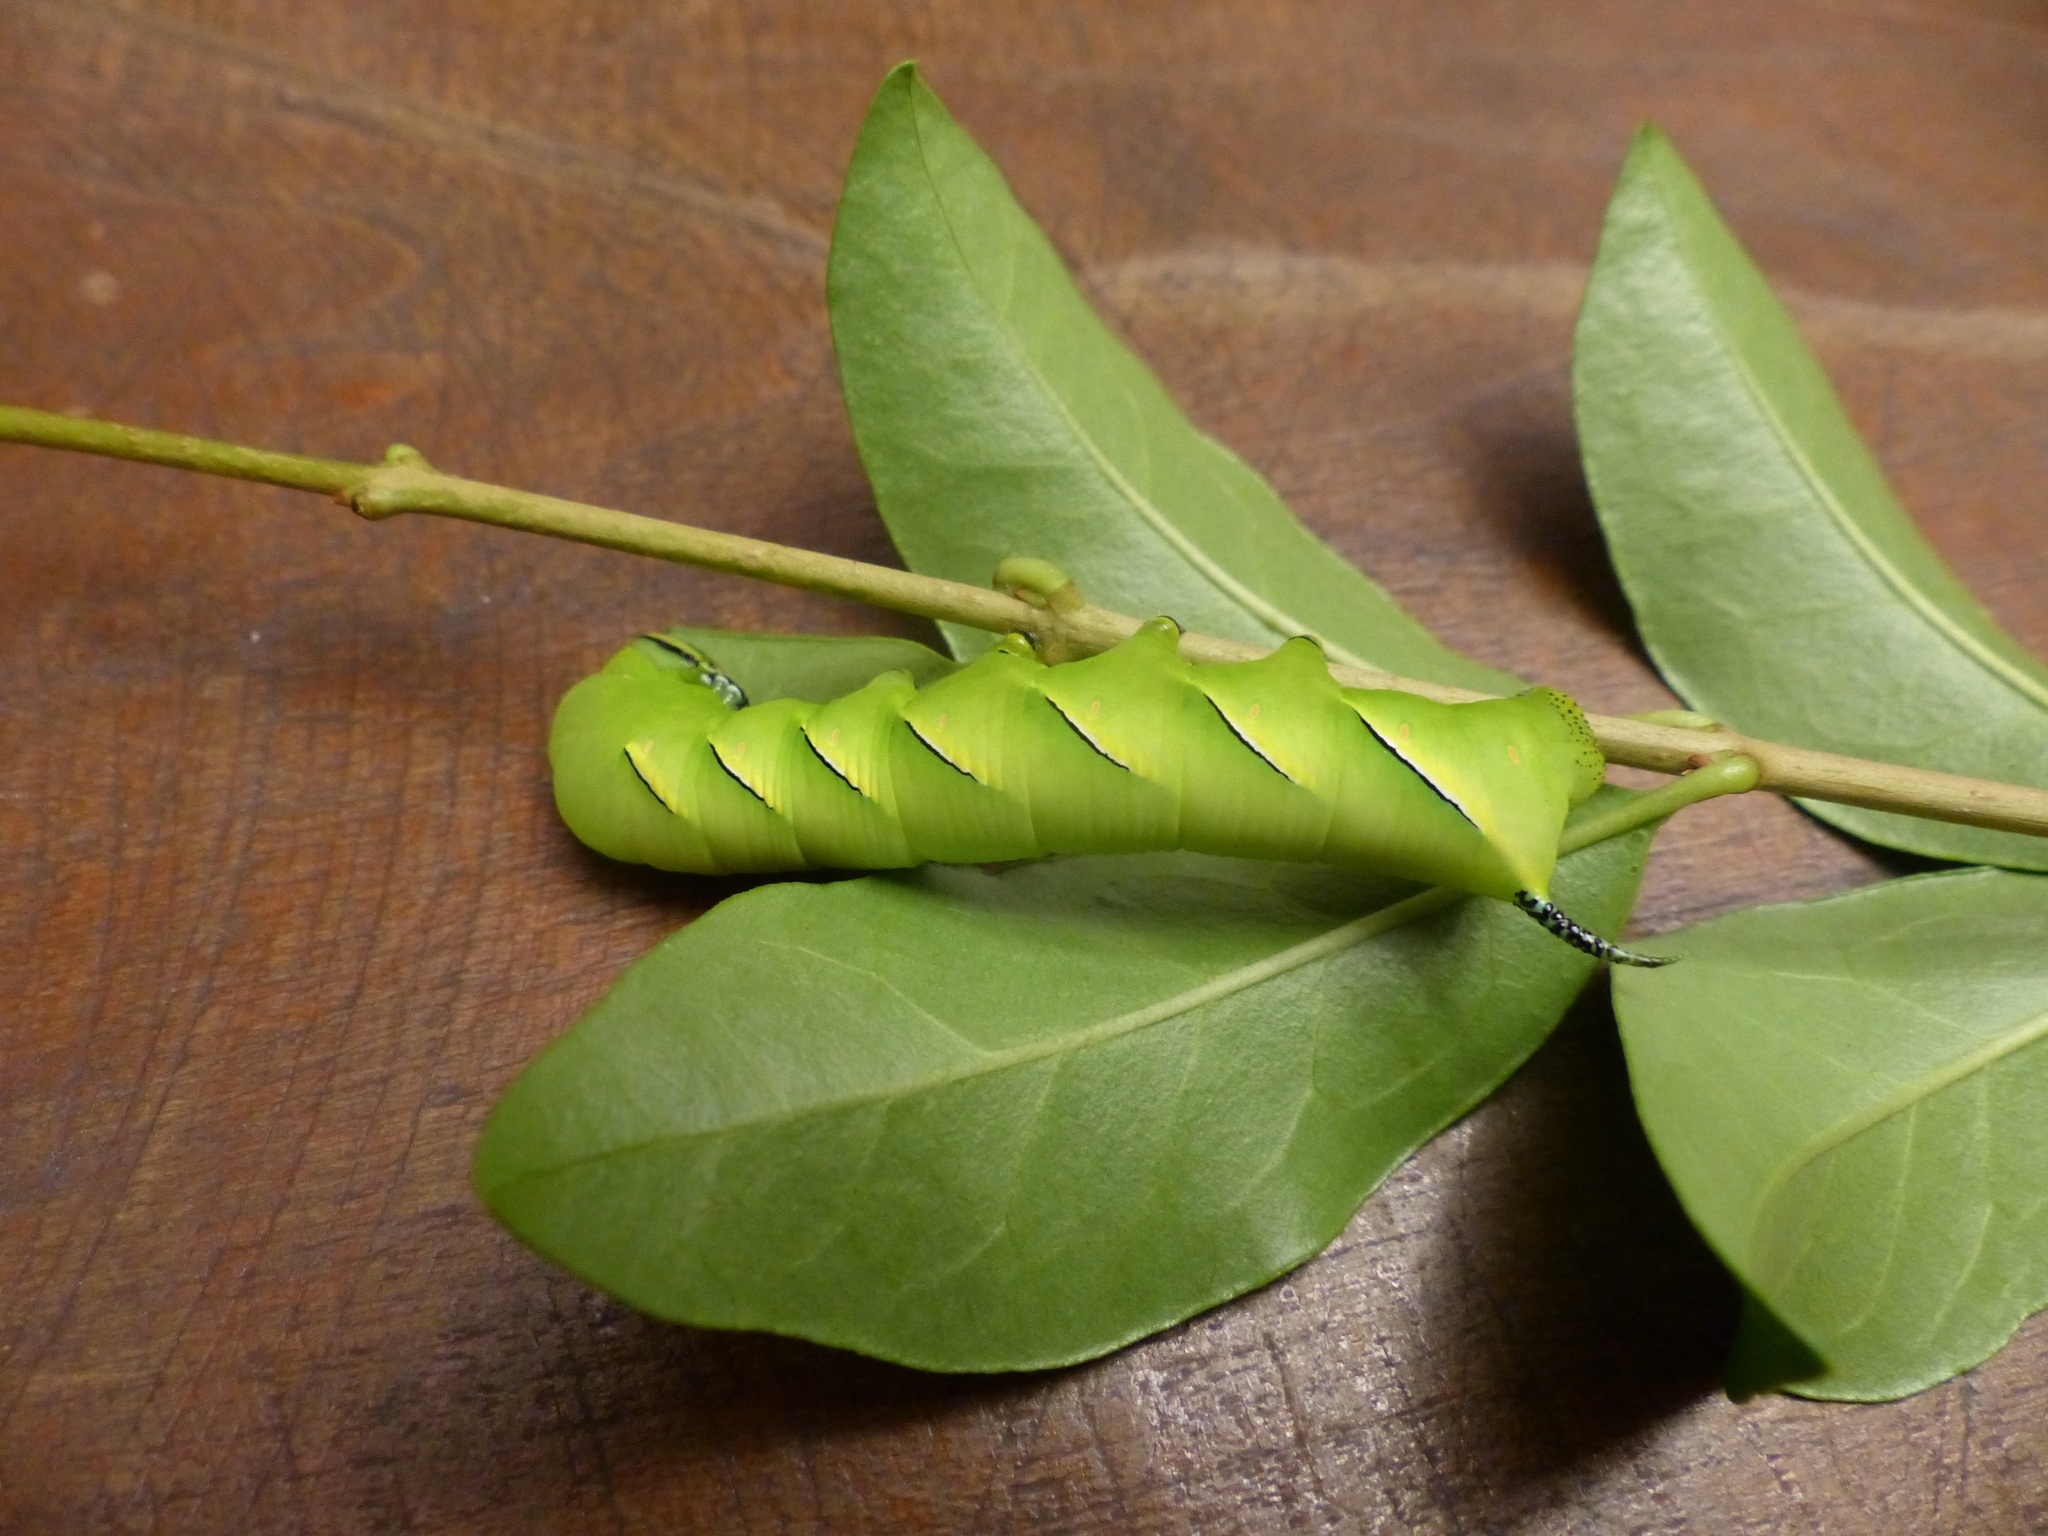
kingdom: Animalia
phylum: Arthropoda
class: Insecta
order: Lepidoptera
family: Sphingidae
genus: Sphinx
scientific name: Sphinx kalmiae
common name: Laurel sphinx
